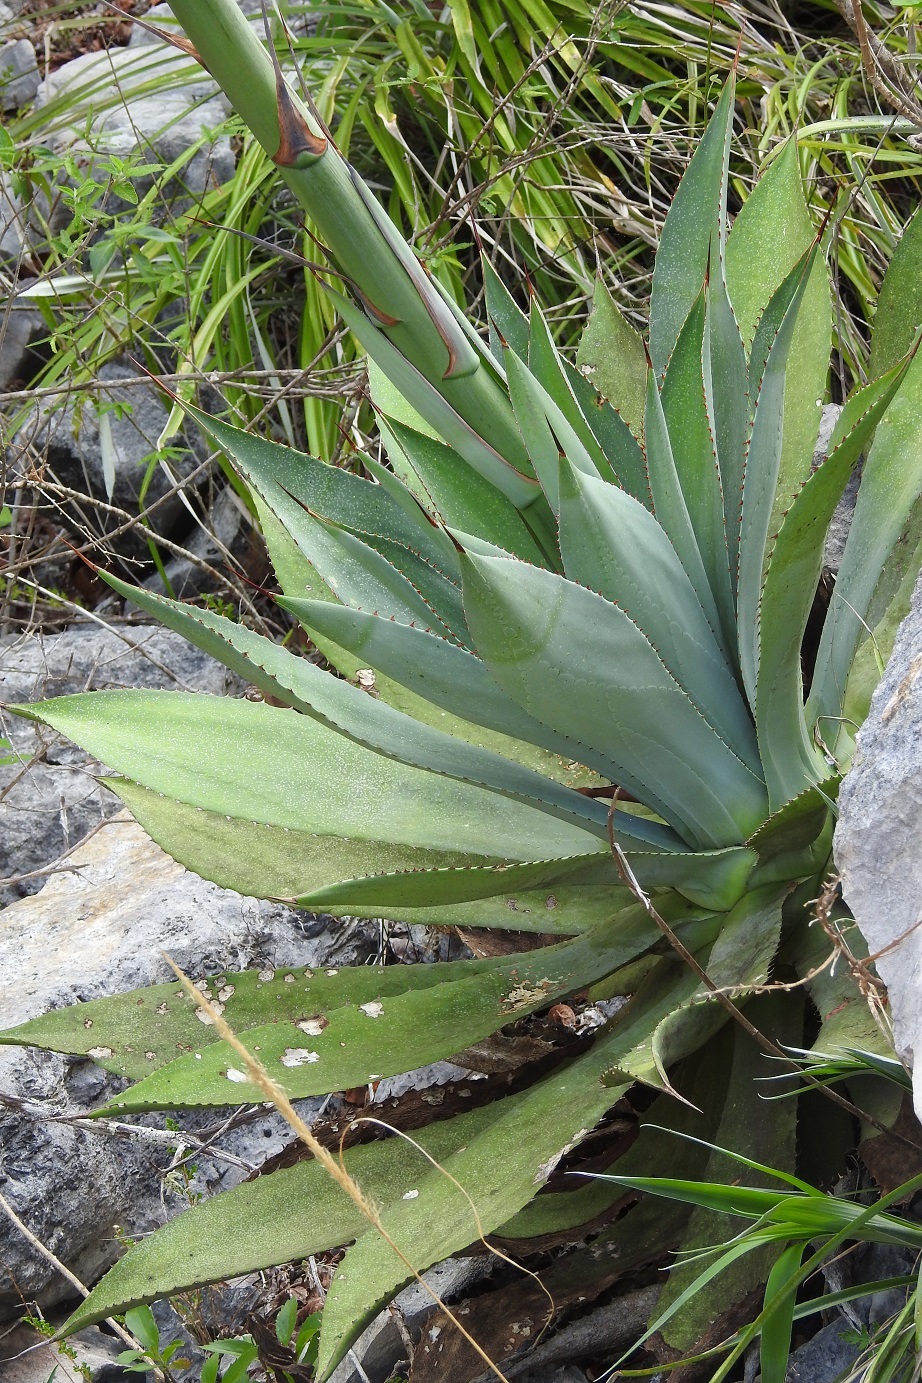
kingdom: Plantae
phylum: Tracheophyta
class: Liliopsida
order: Asparagales
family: Asparagaceae
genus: Agave
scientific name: Agave hiemiflora
